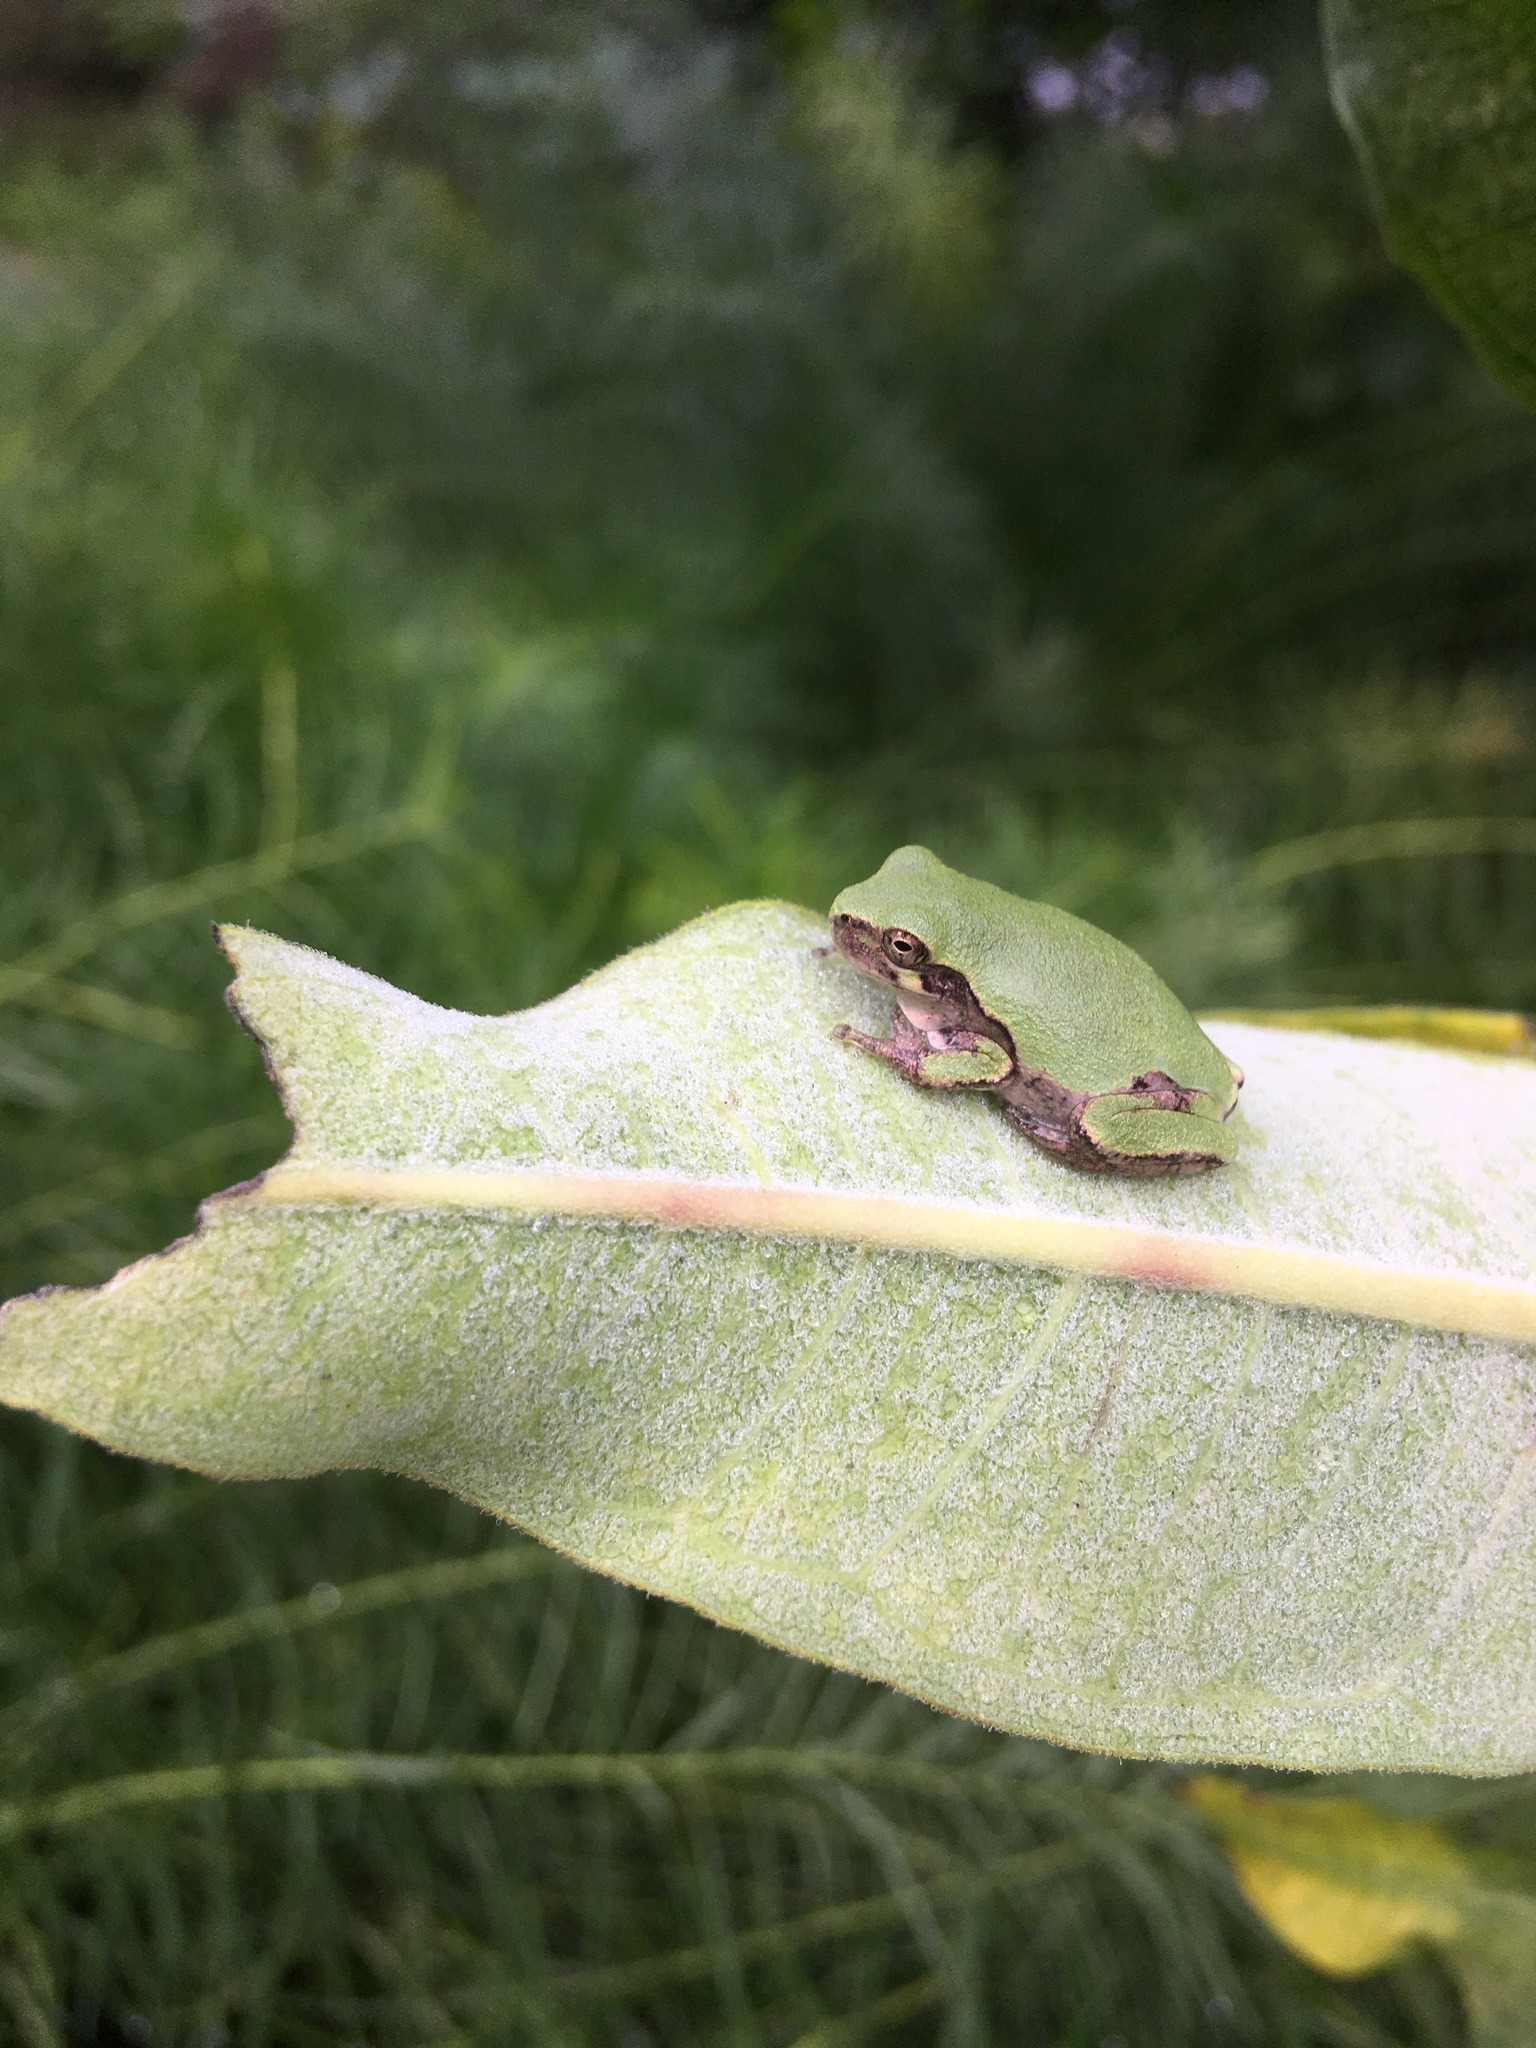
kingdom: Animalia
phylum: Chordata
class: Amphibia
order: Anura
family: Hylidae
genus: Dryophytes
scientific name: Dryophytes chrysoscelis
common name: Cope's gray treefrog
